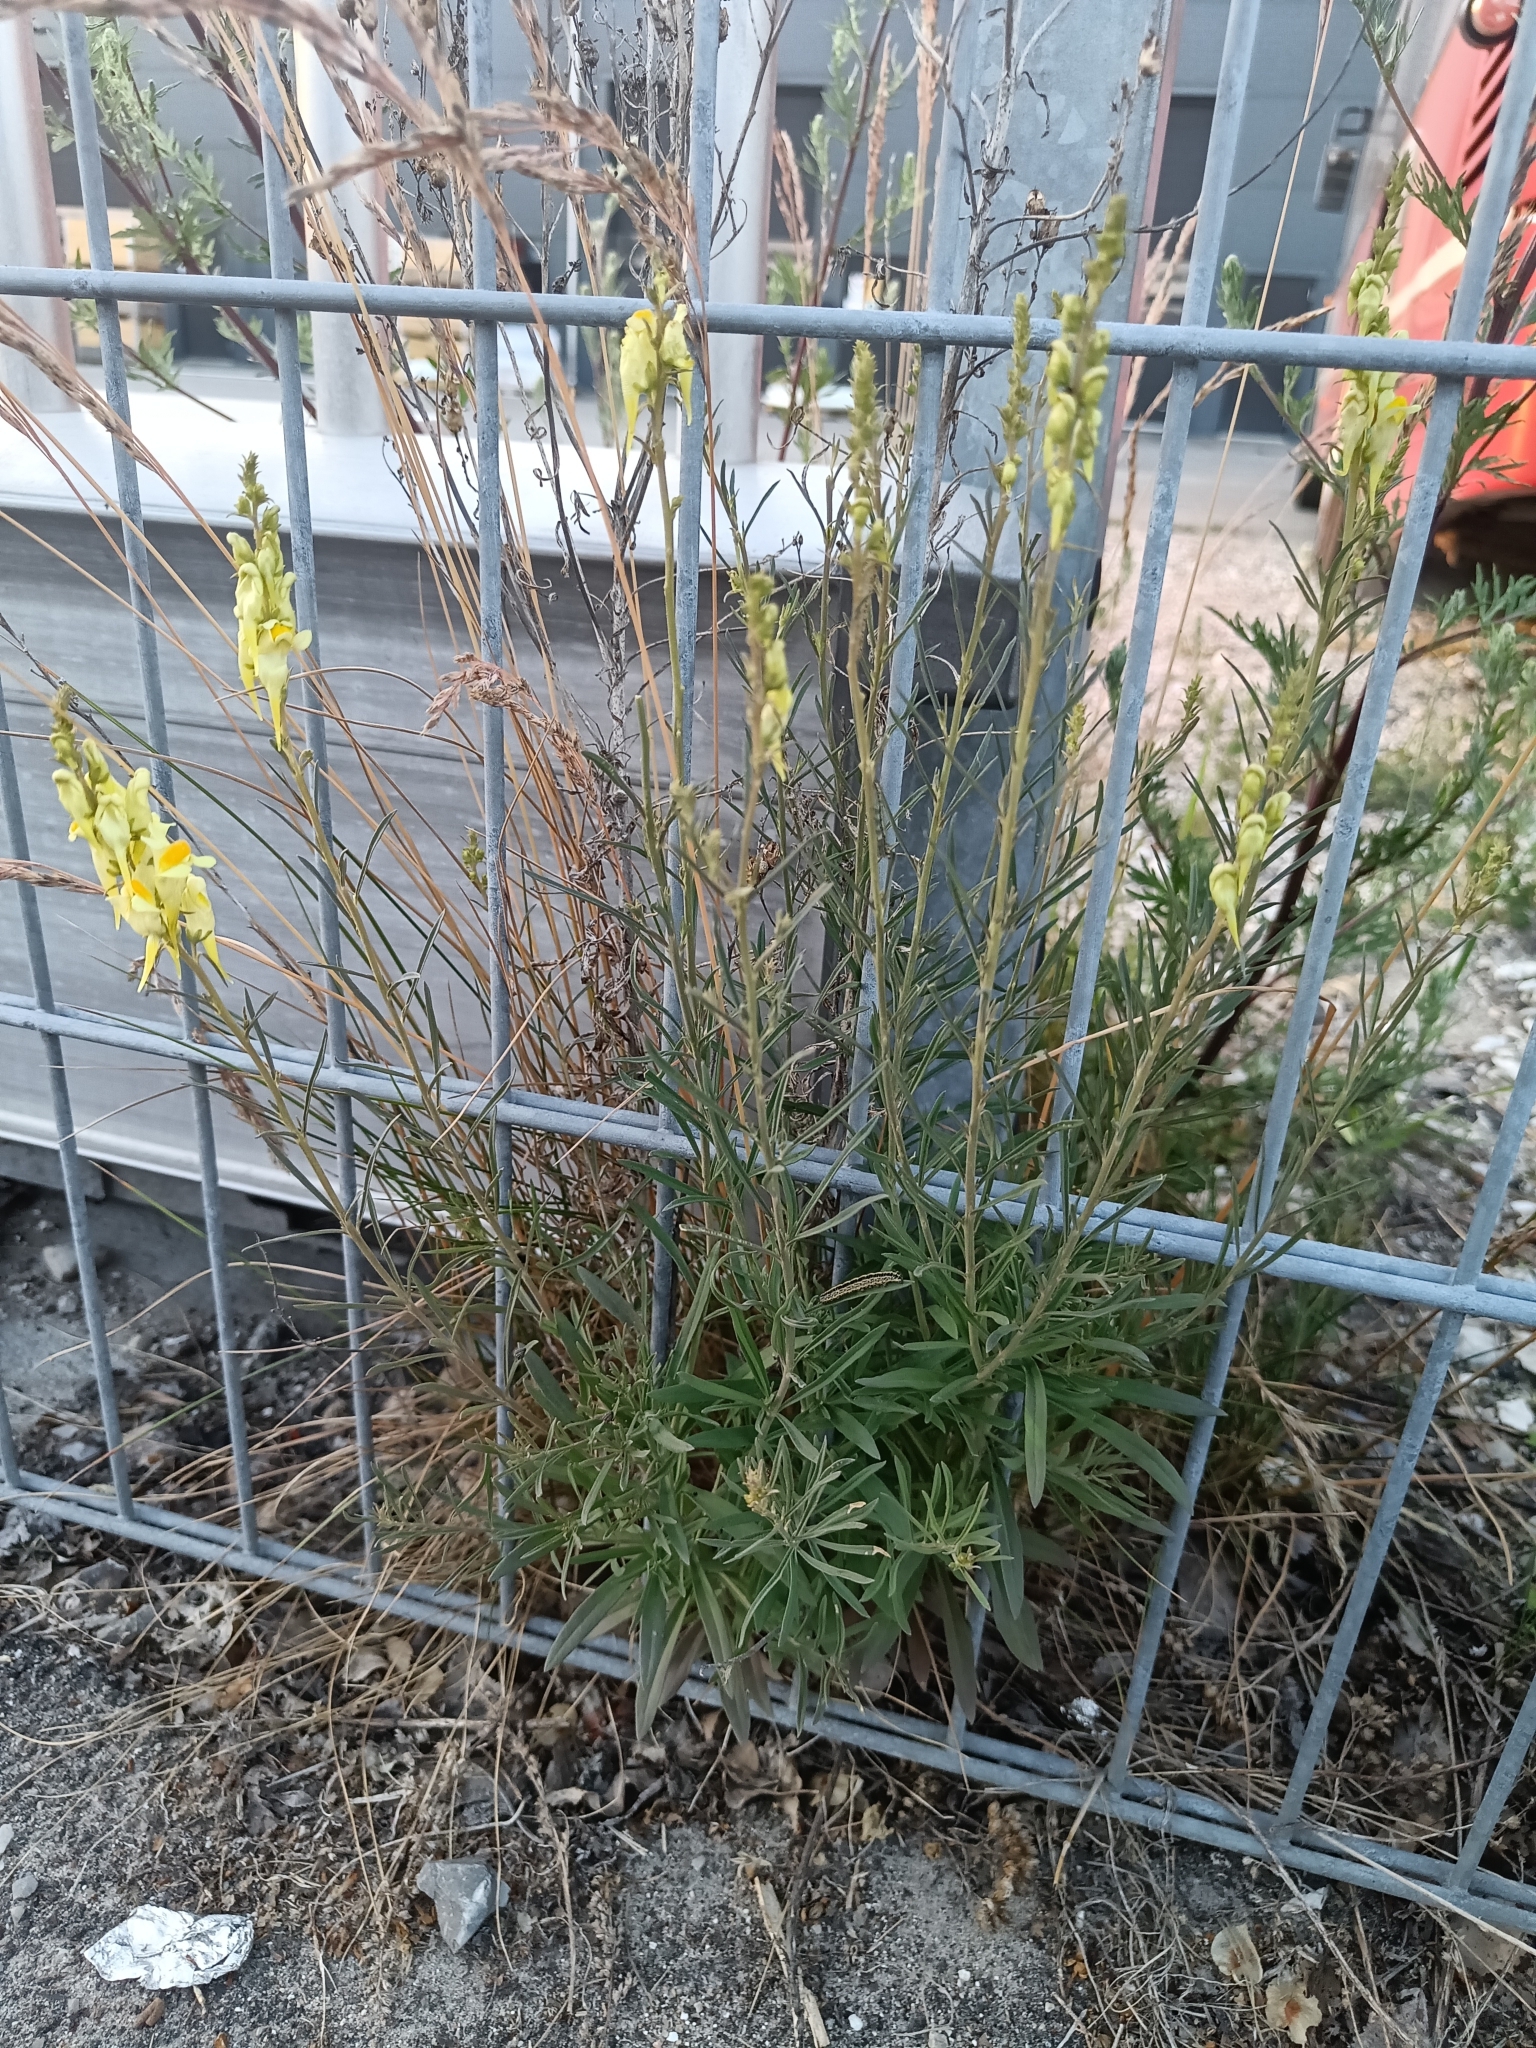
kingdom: Plantae
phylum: Tracheophyta
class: Magnoliopsida
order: Lamiales
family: Plantaginaceae
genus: Linaria
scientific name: Linaria vulgaris
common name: Butter and eggs
